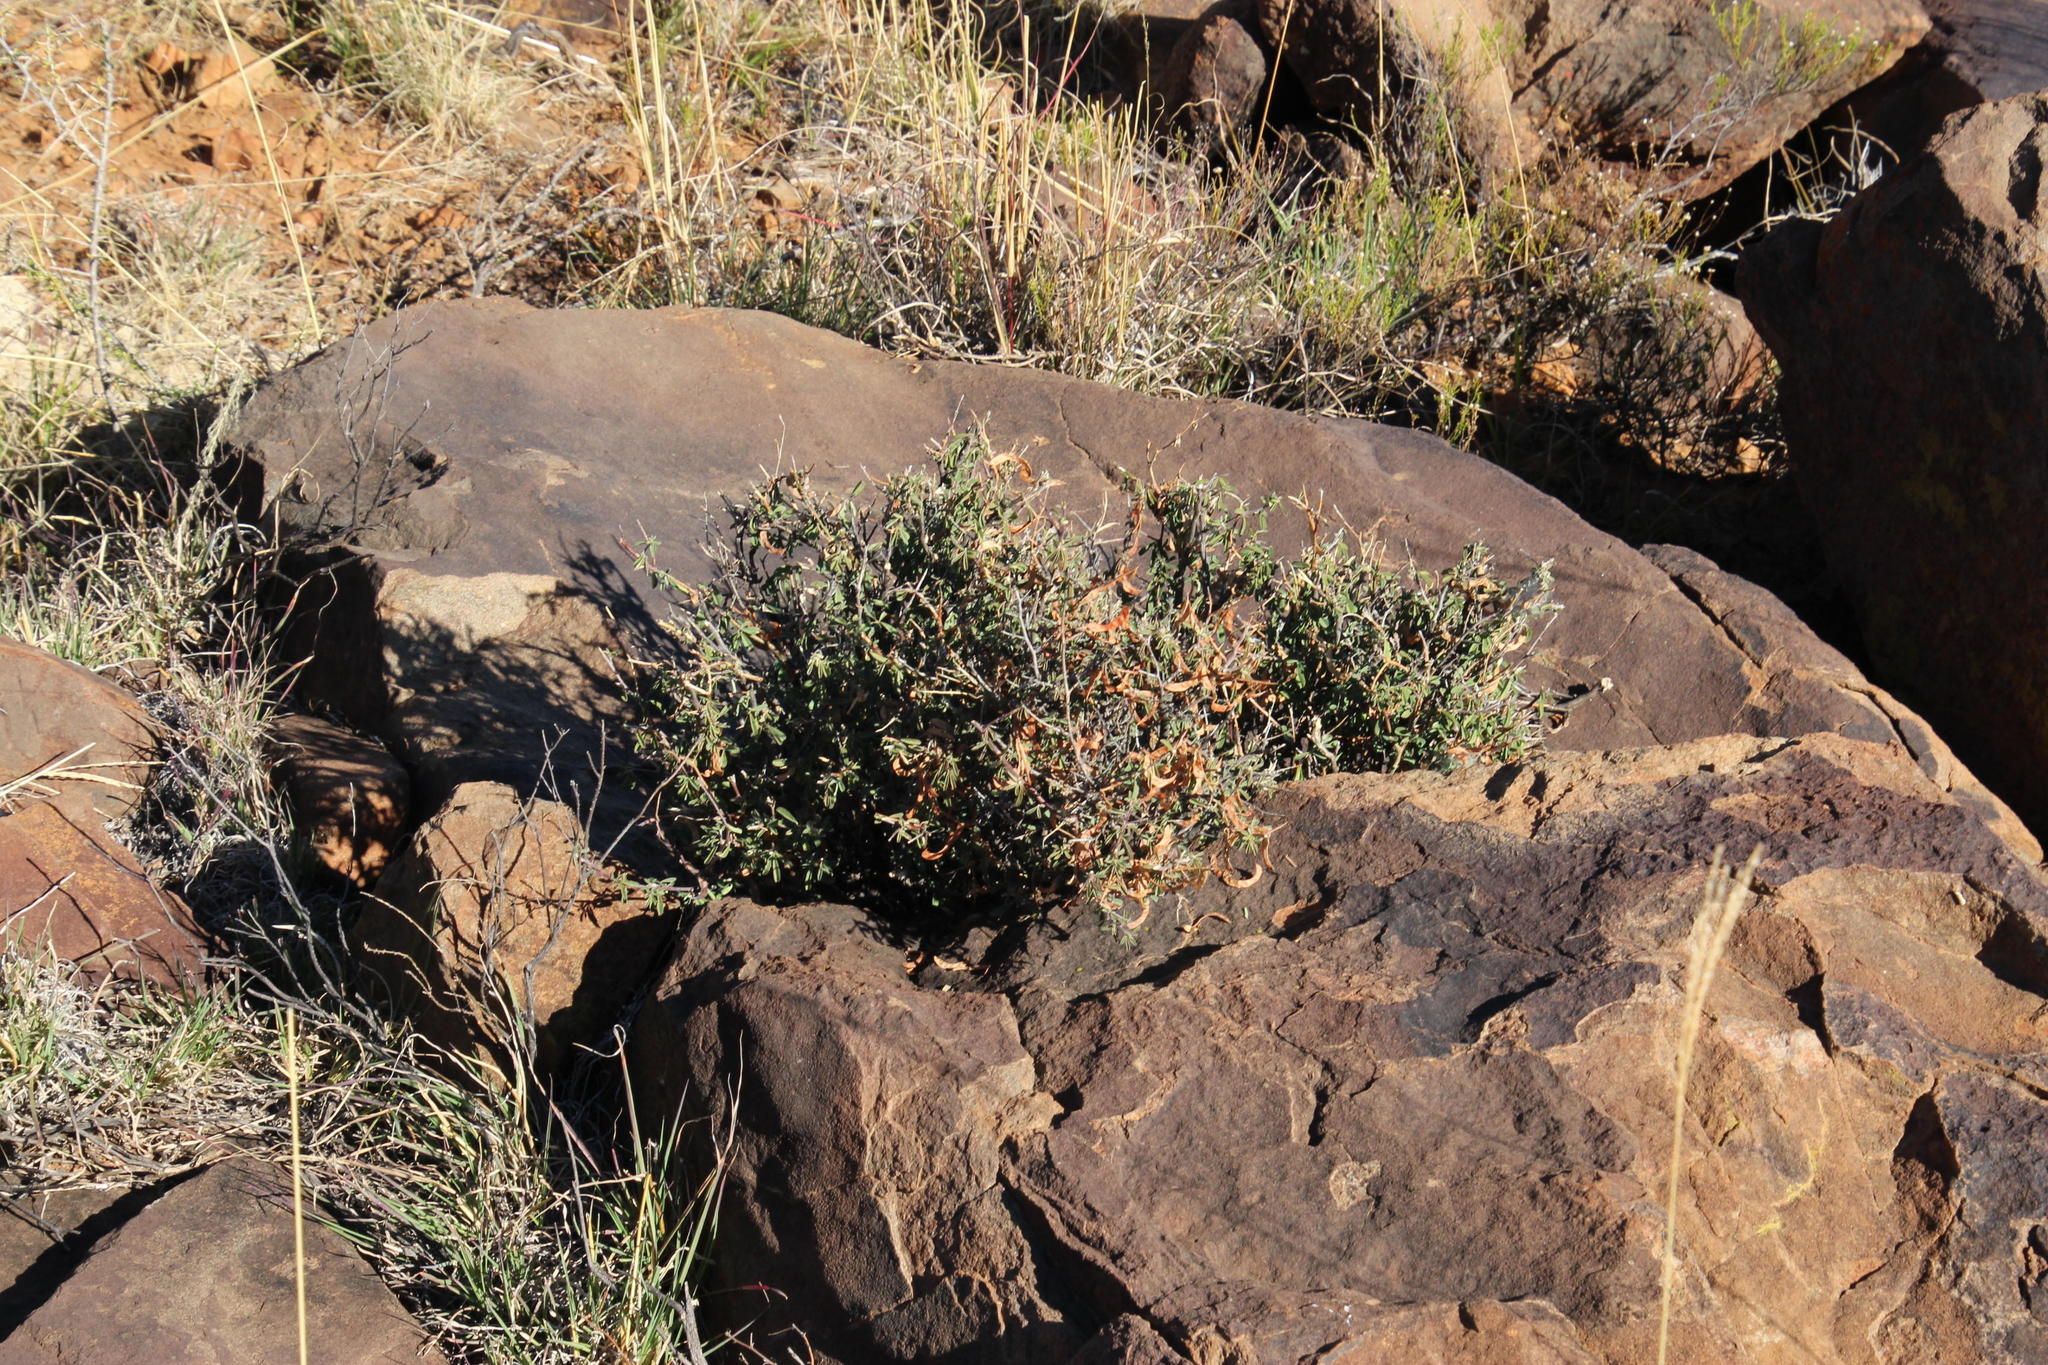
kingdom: Plantae
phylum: Tracheophyta
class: Magnoliopsida
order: Lamiales
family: Bignoniaceae
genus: Rhigozum
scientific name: Rhigozum obovatum
